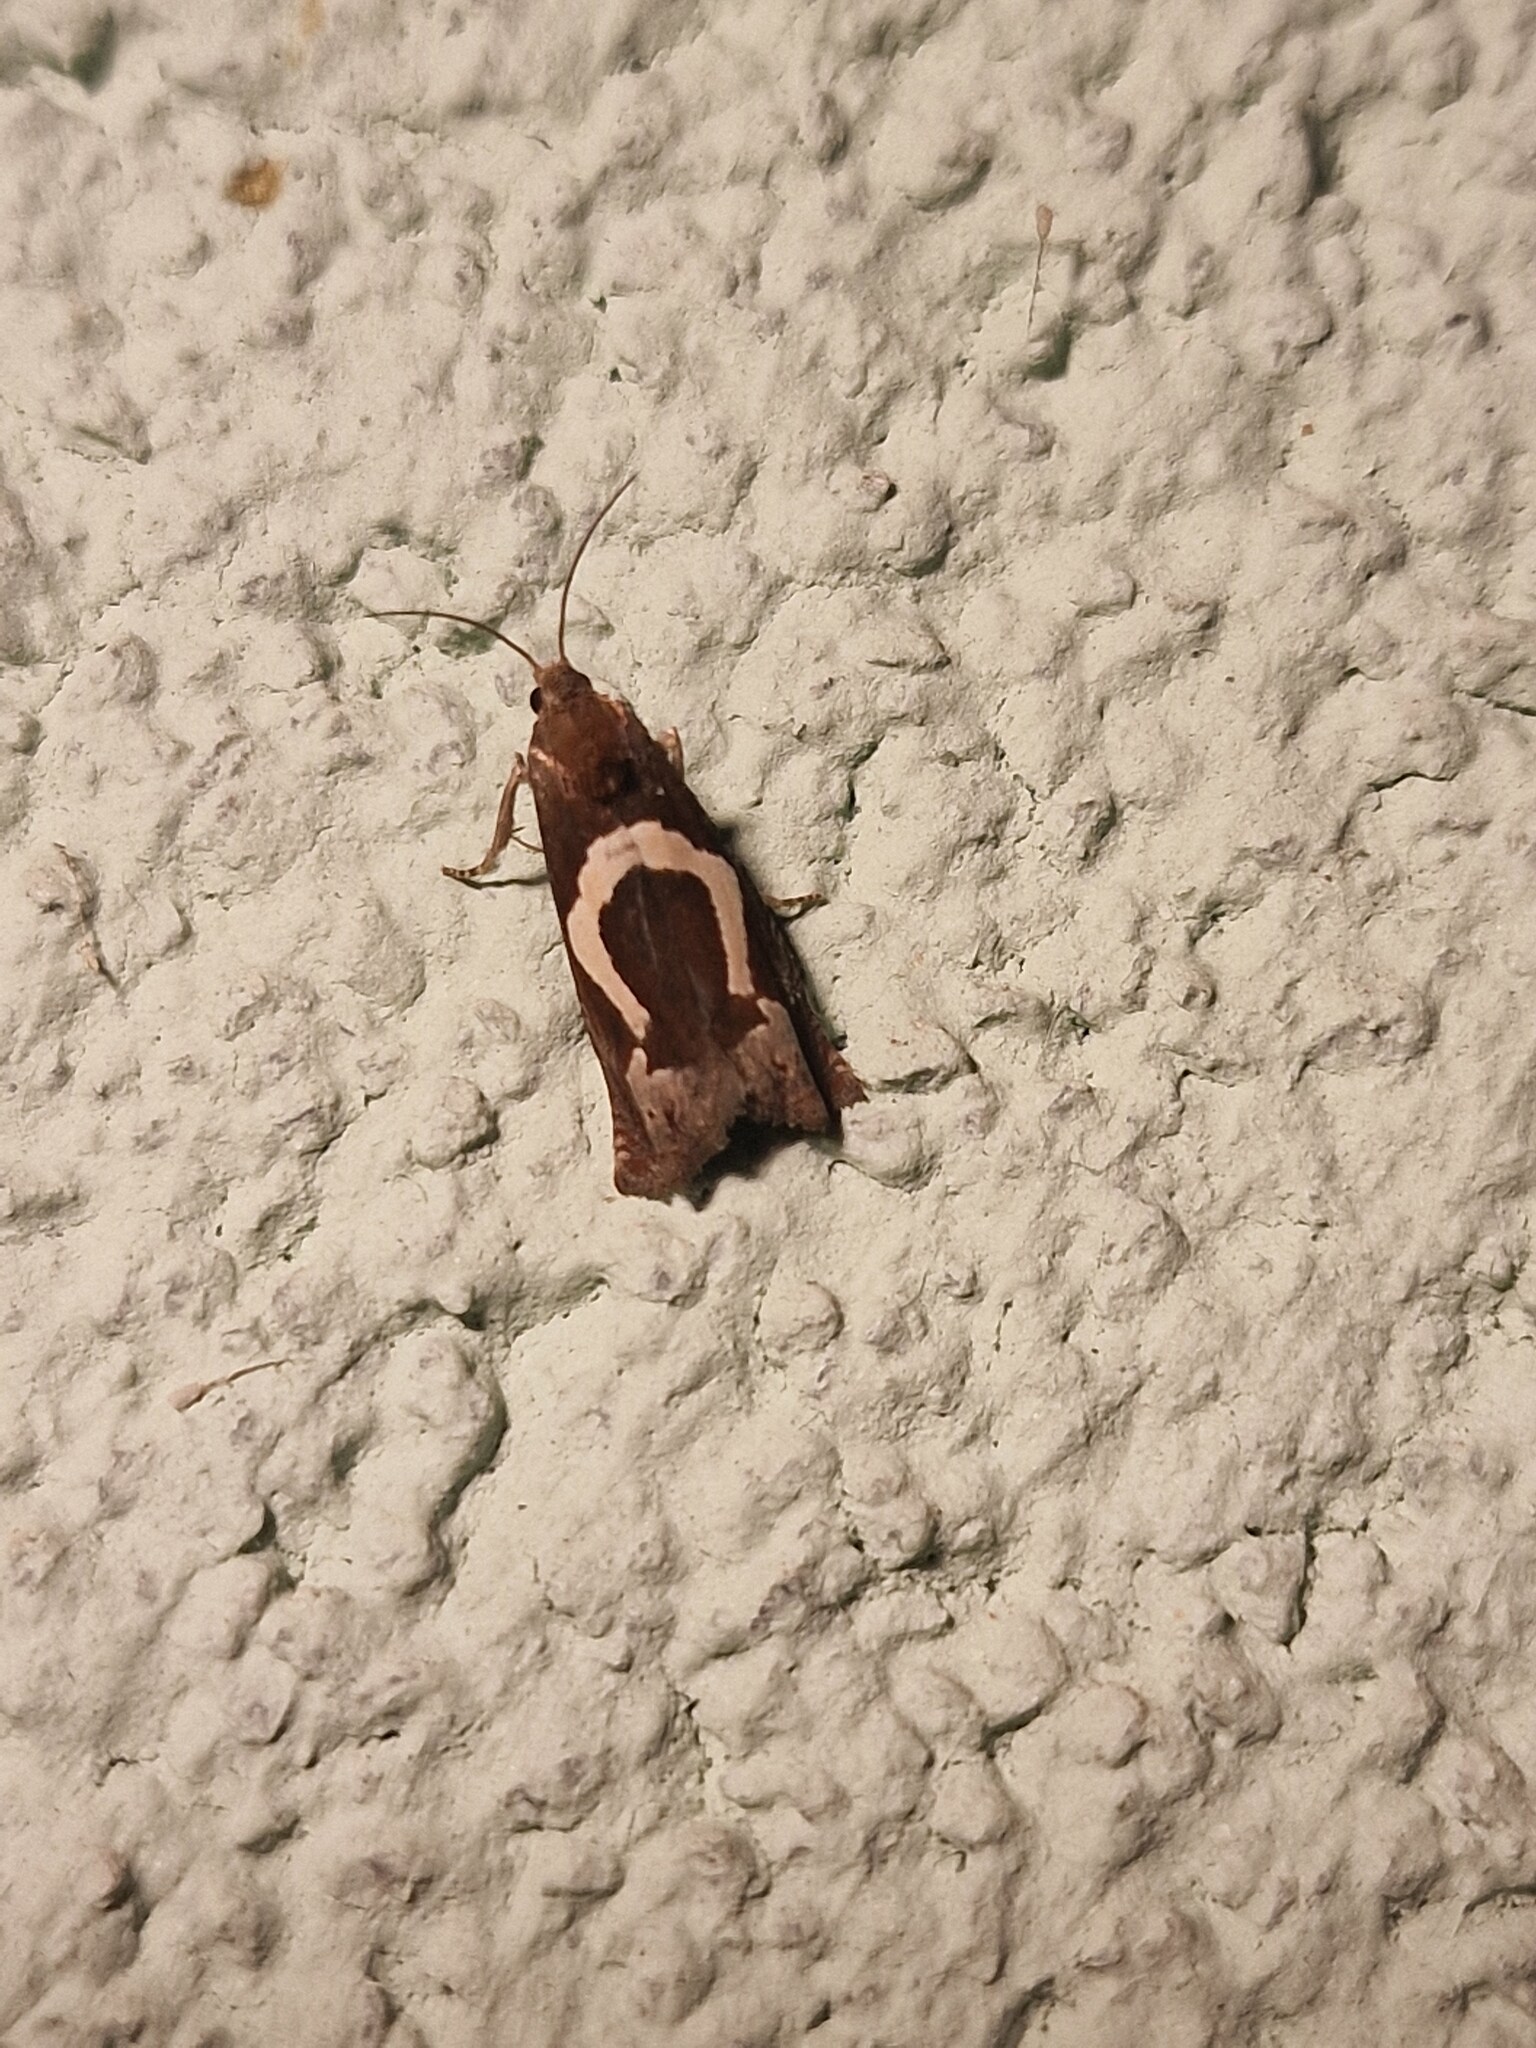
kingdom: Animalia
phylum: Arthropoda
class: Insecta
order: Lepidoptera
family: Tortricidae
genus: Epiblema
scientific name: Epiblema foenella
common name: White-foot bell
